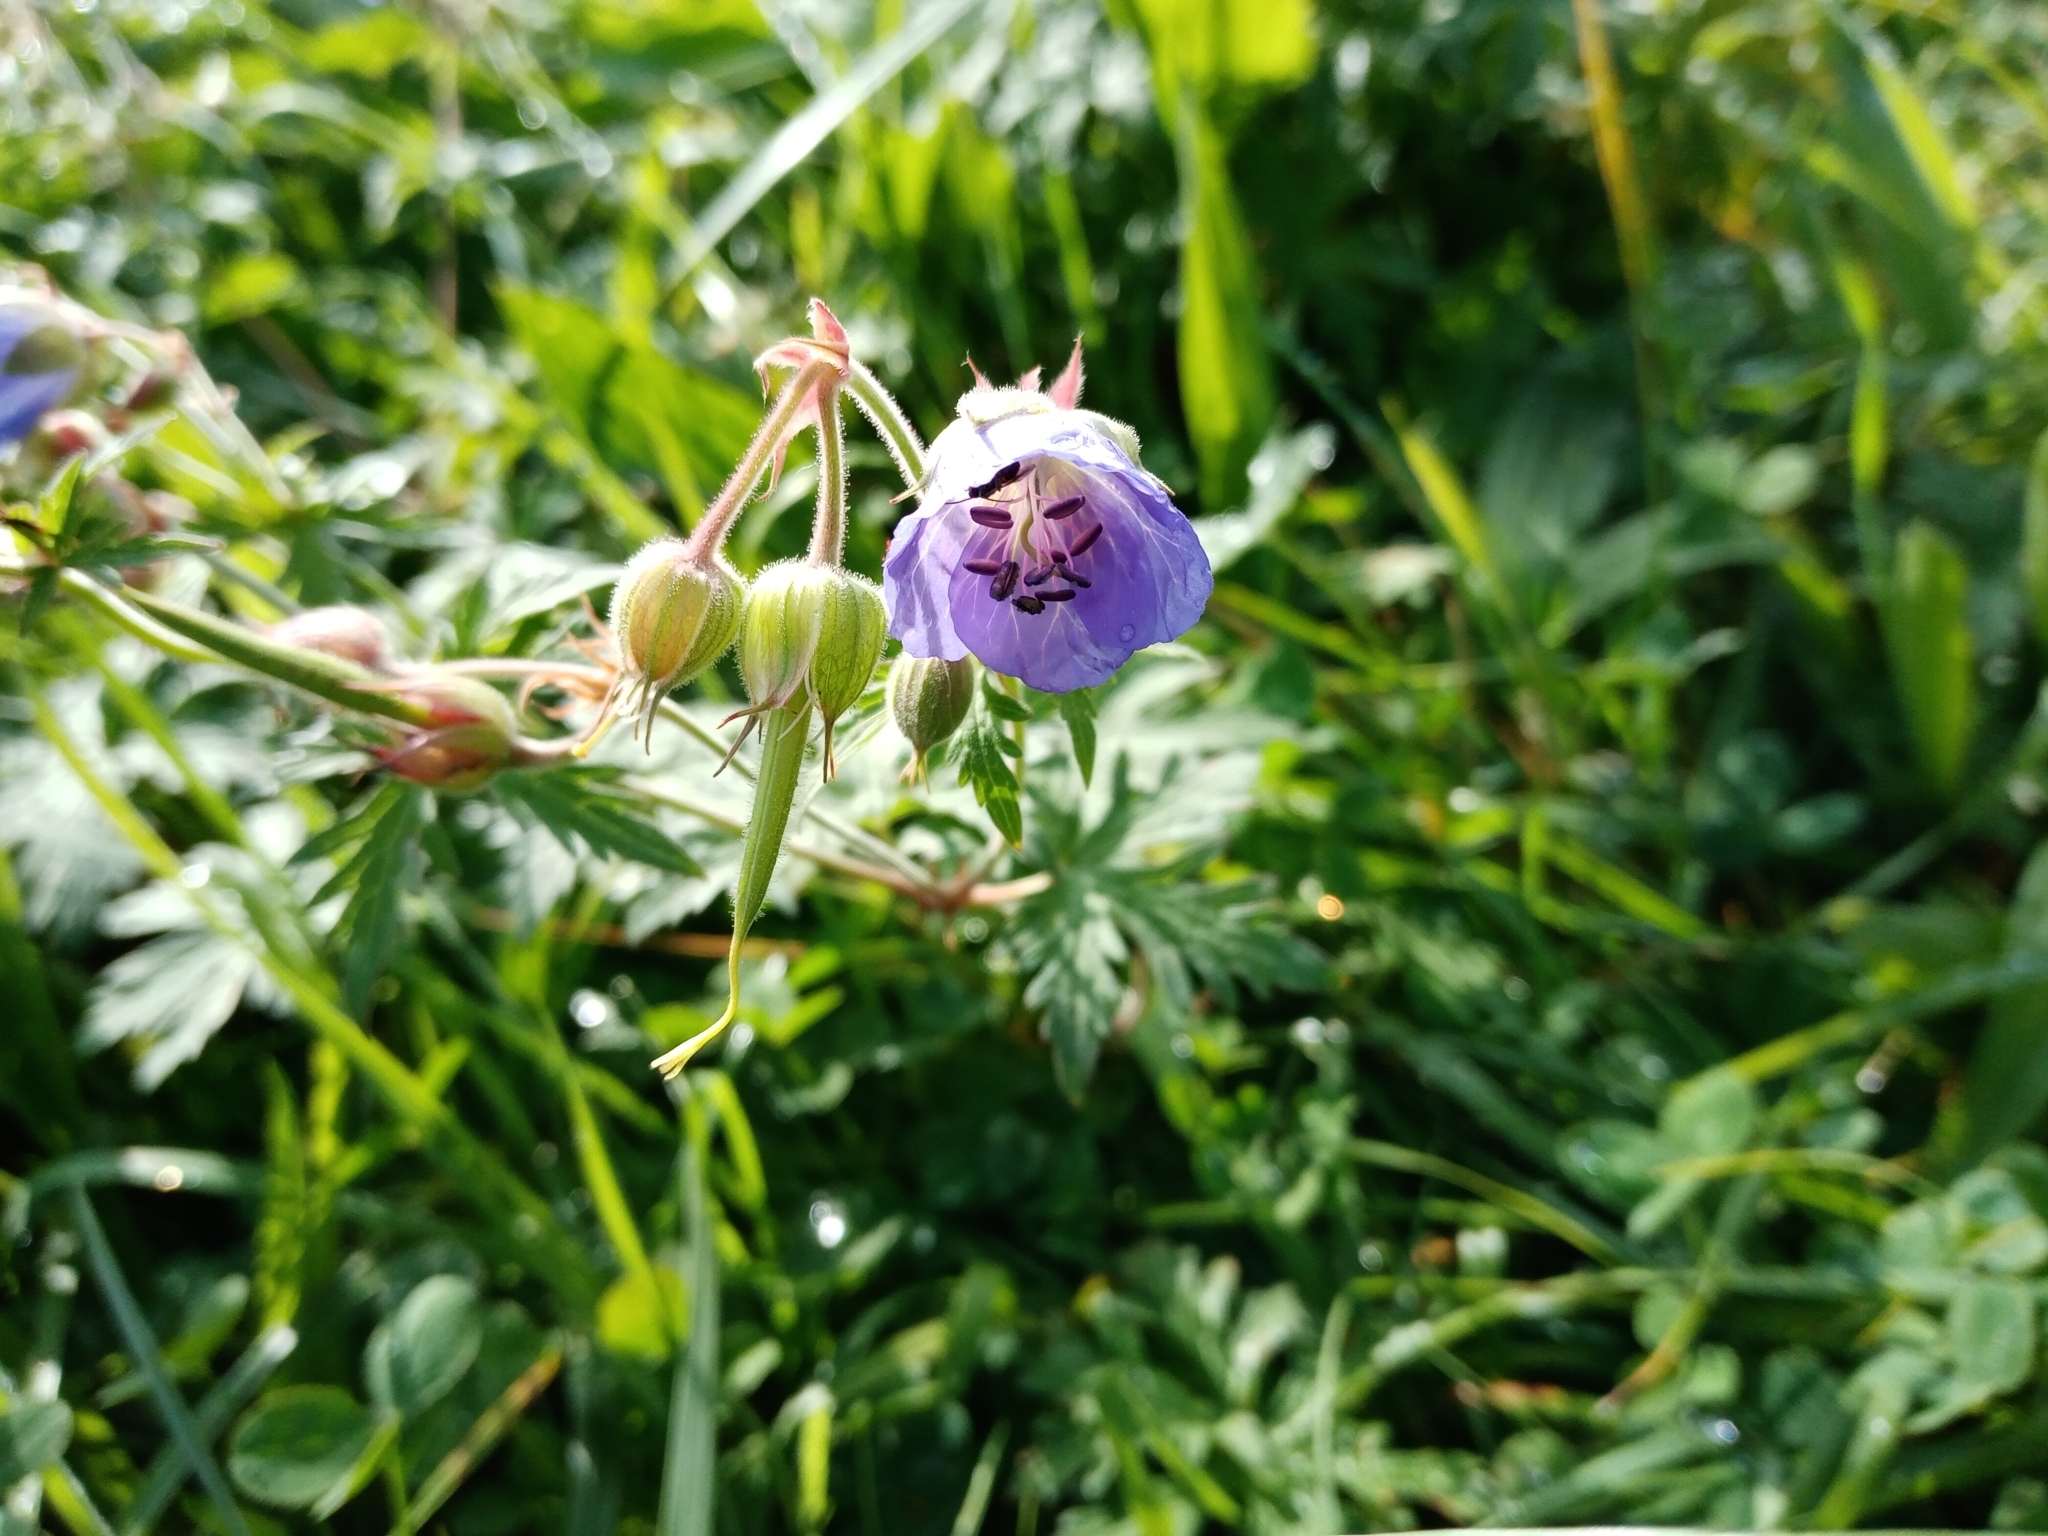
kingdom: Plantae
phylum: Tracheophyta
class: Magnoliopsida
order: Geraniales
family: Geraniaceae
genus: Geranium
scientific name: Geranium pratense
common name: Meadow crane's-bill
